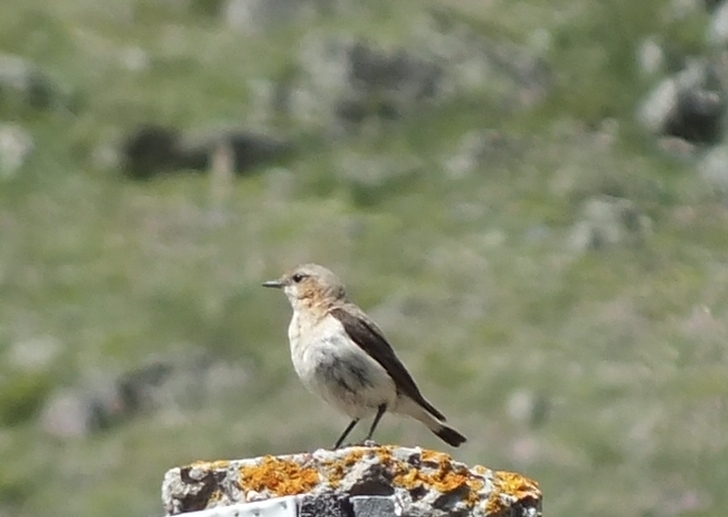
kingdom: Animalia
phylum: Chordata
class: Aves
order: Passeriformes
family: Muscicapidae
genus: Oenanthe
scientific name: Oenanthe oenanthe
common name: Northern wheatear
